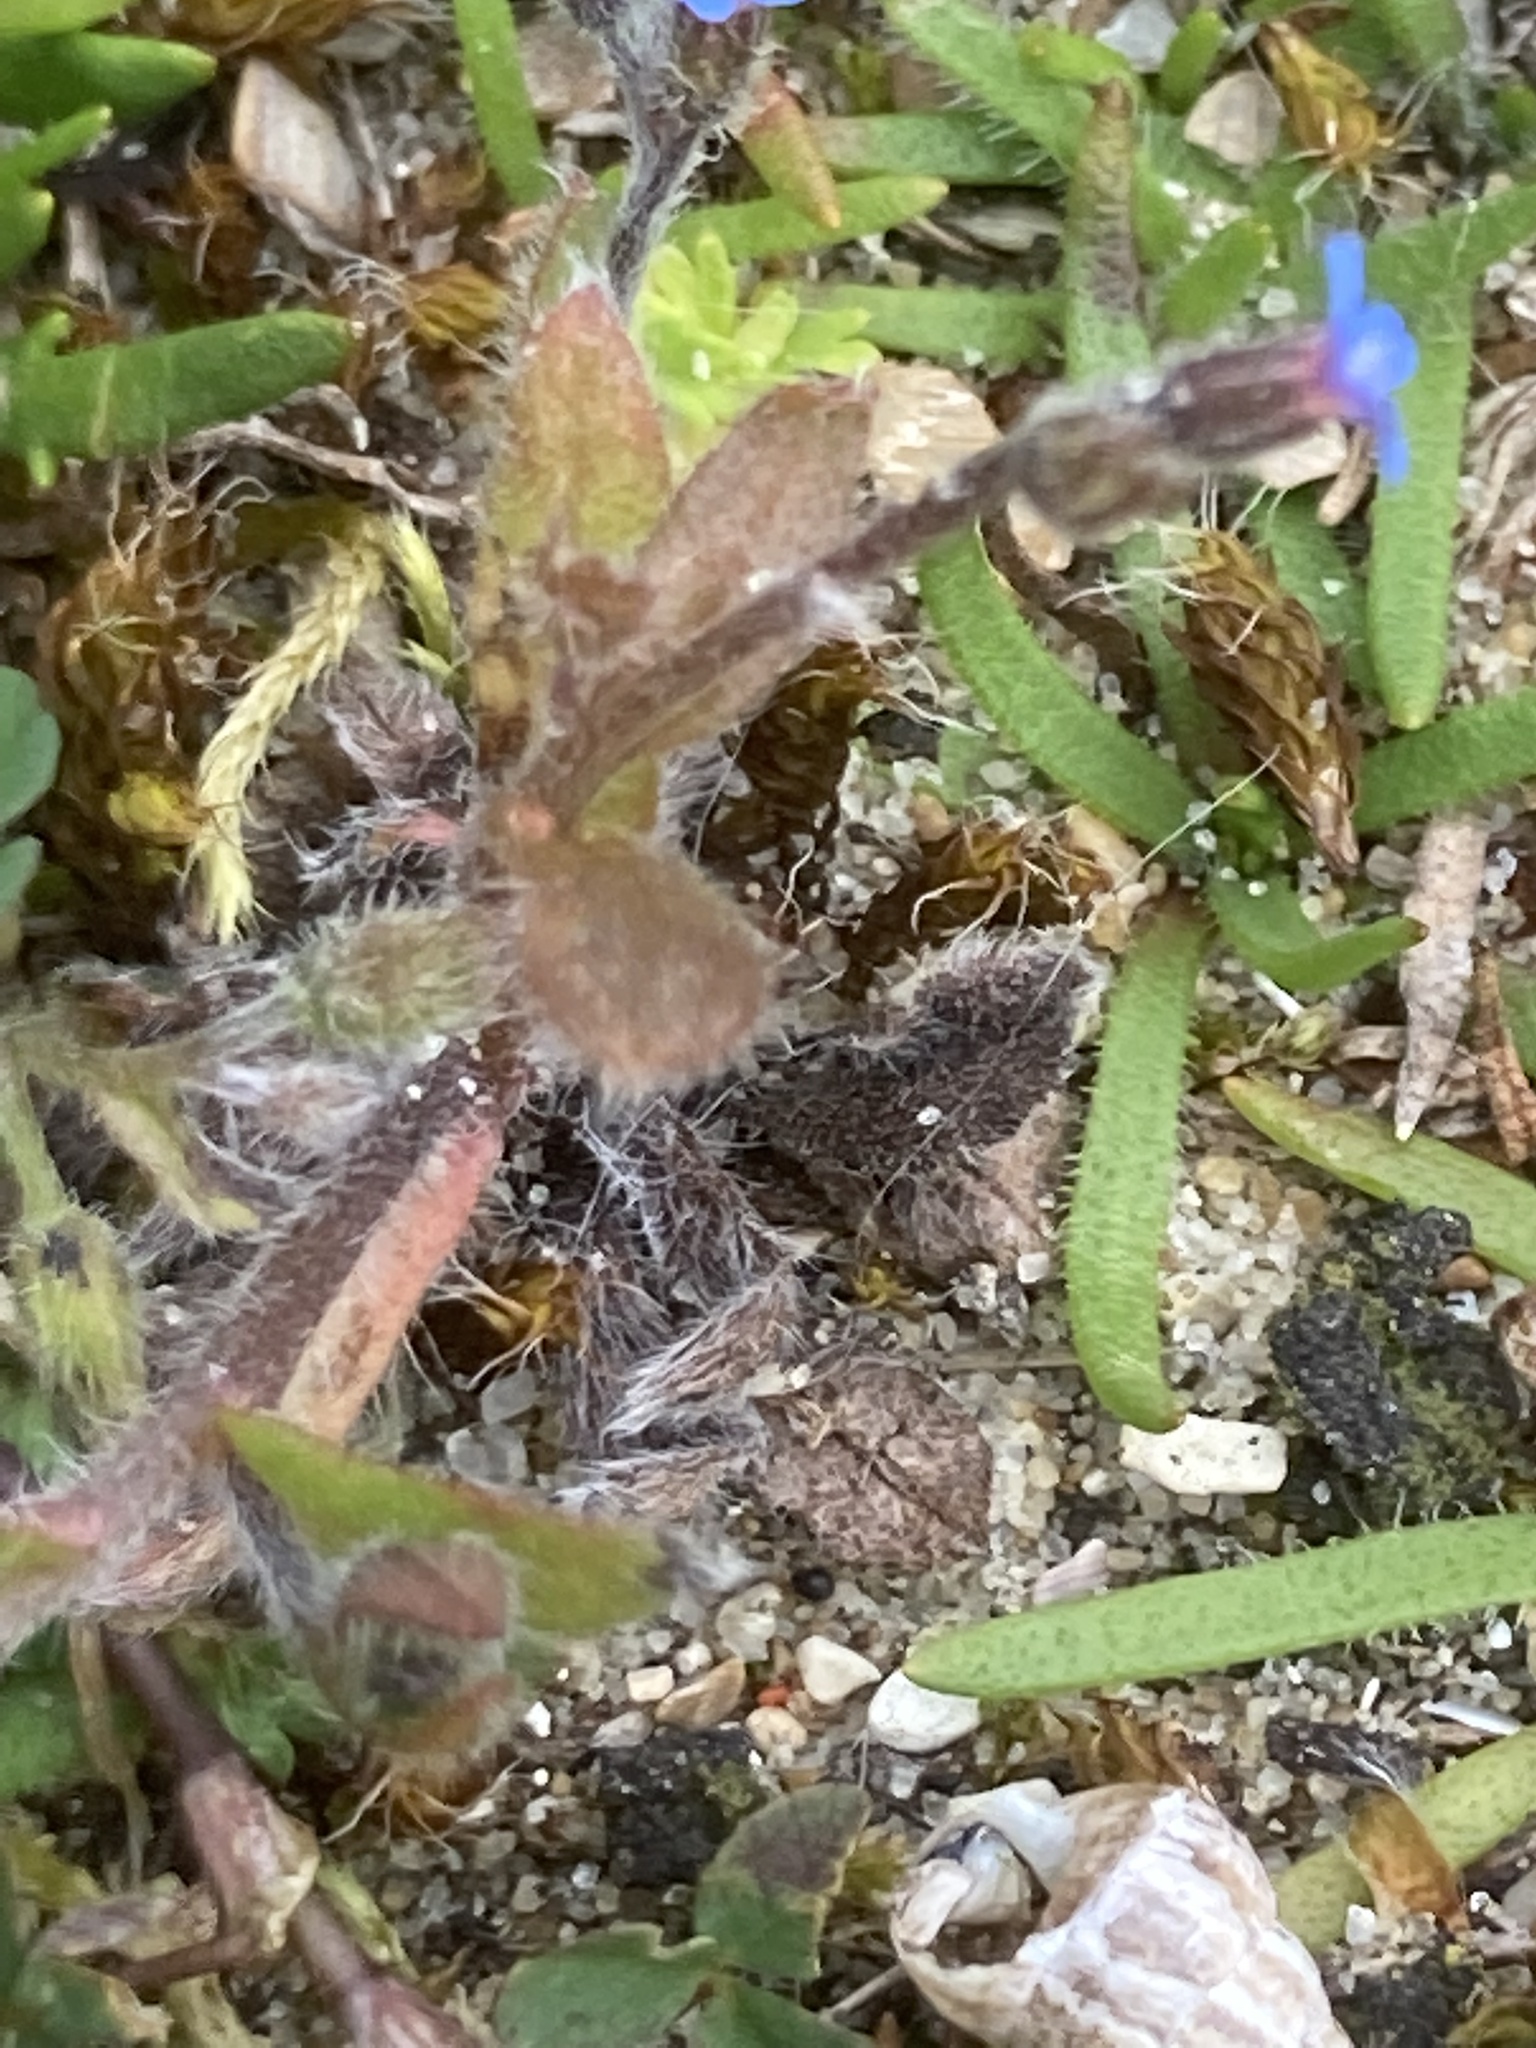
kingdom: Plantae
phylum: Tracheophyta
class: Magnoliopsida
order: Boraginales
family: Boraginaceae
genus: Myosotis
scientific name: Myosotis ramosissima
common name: Early forget-me-not
